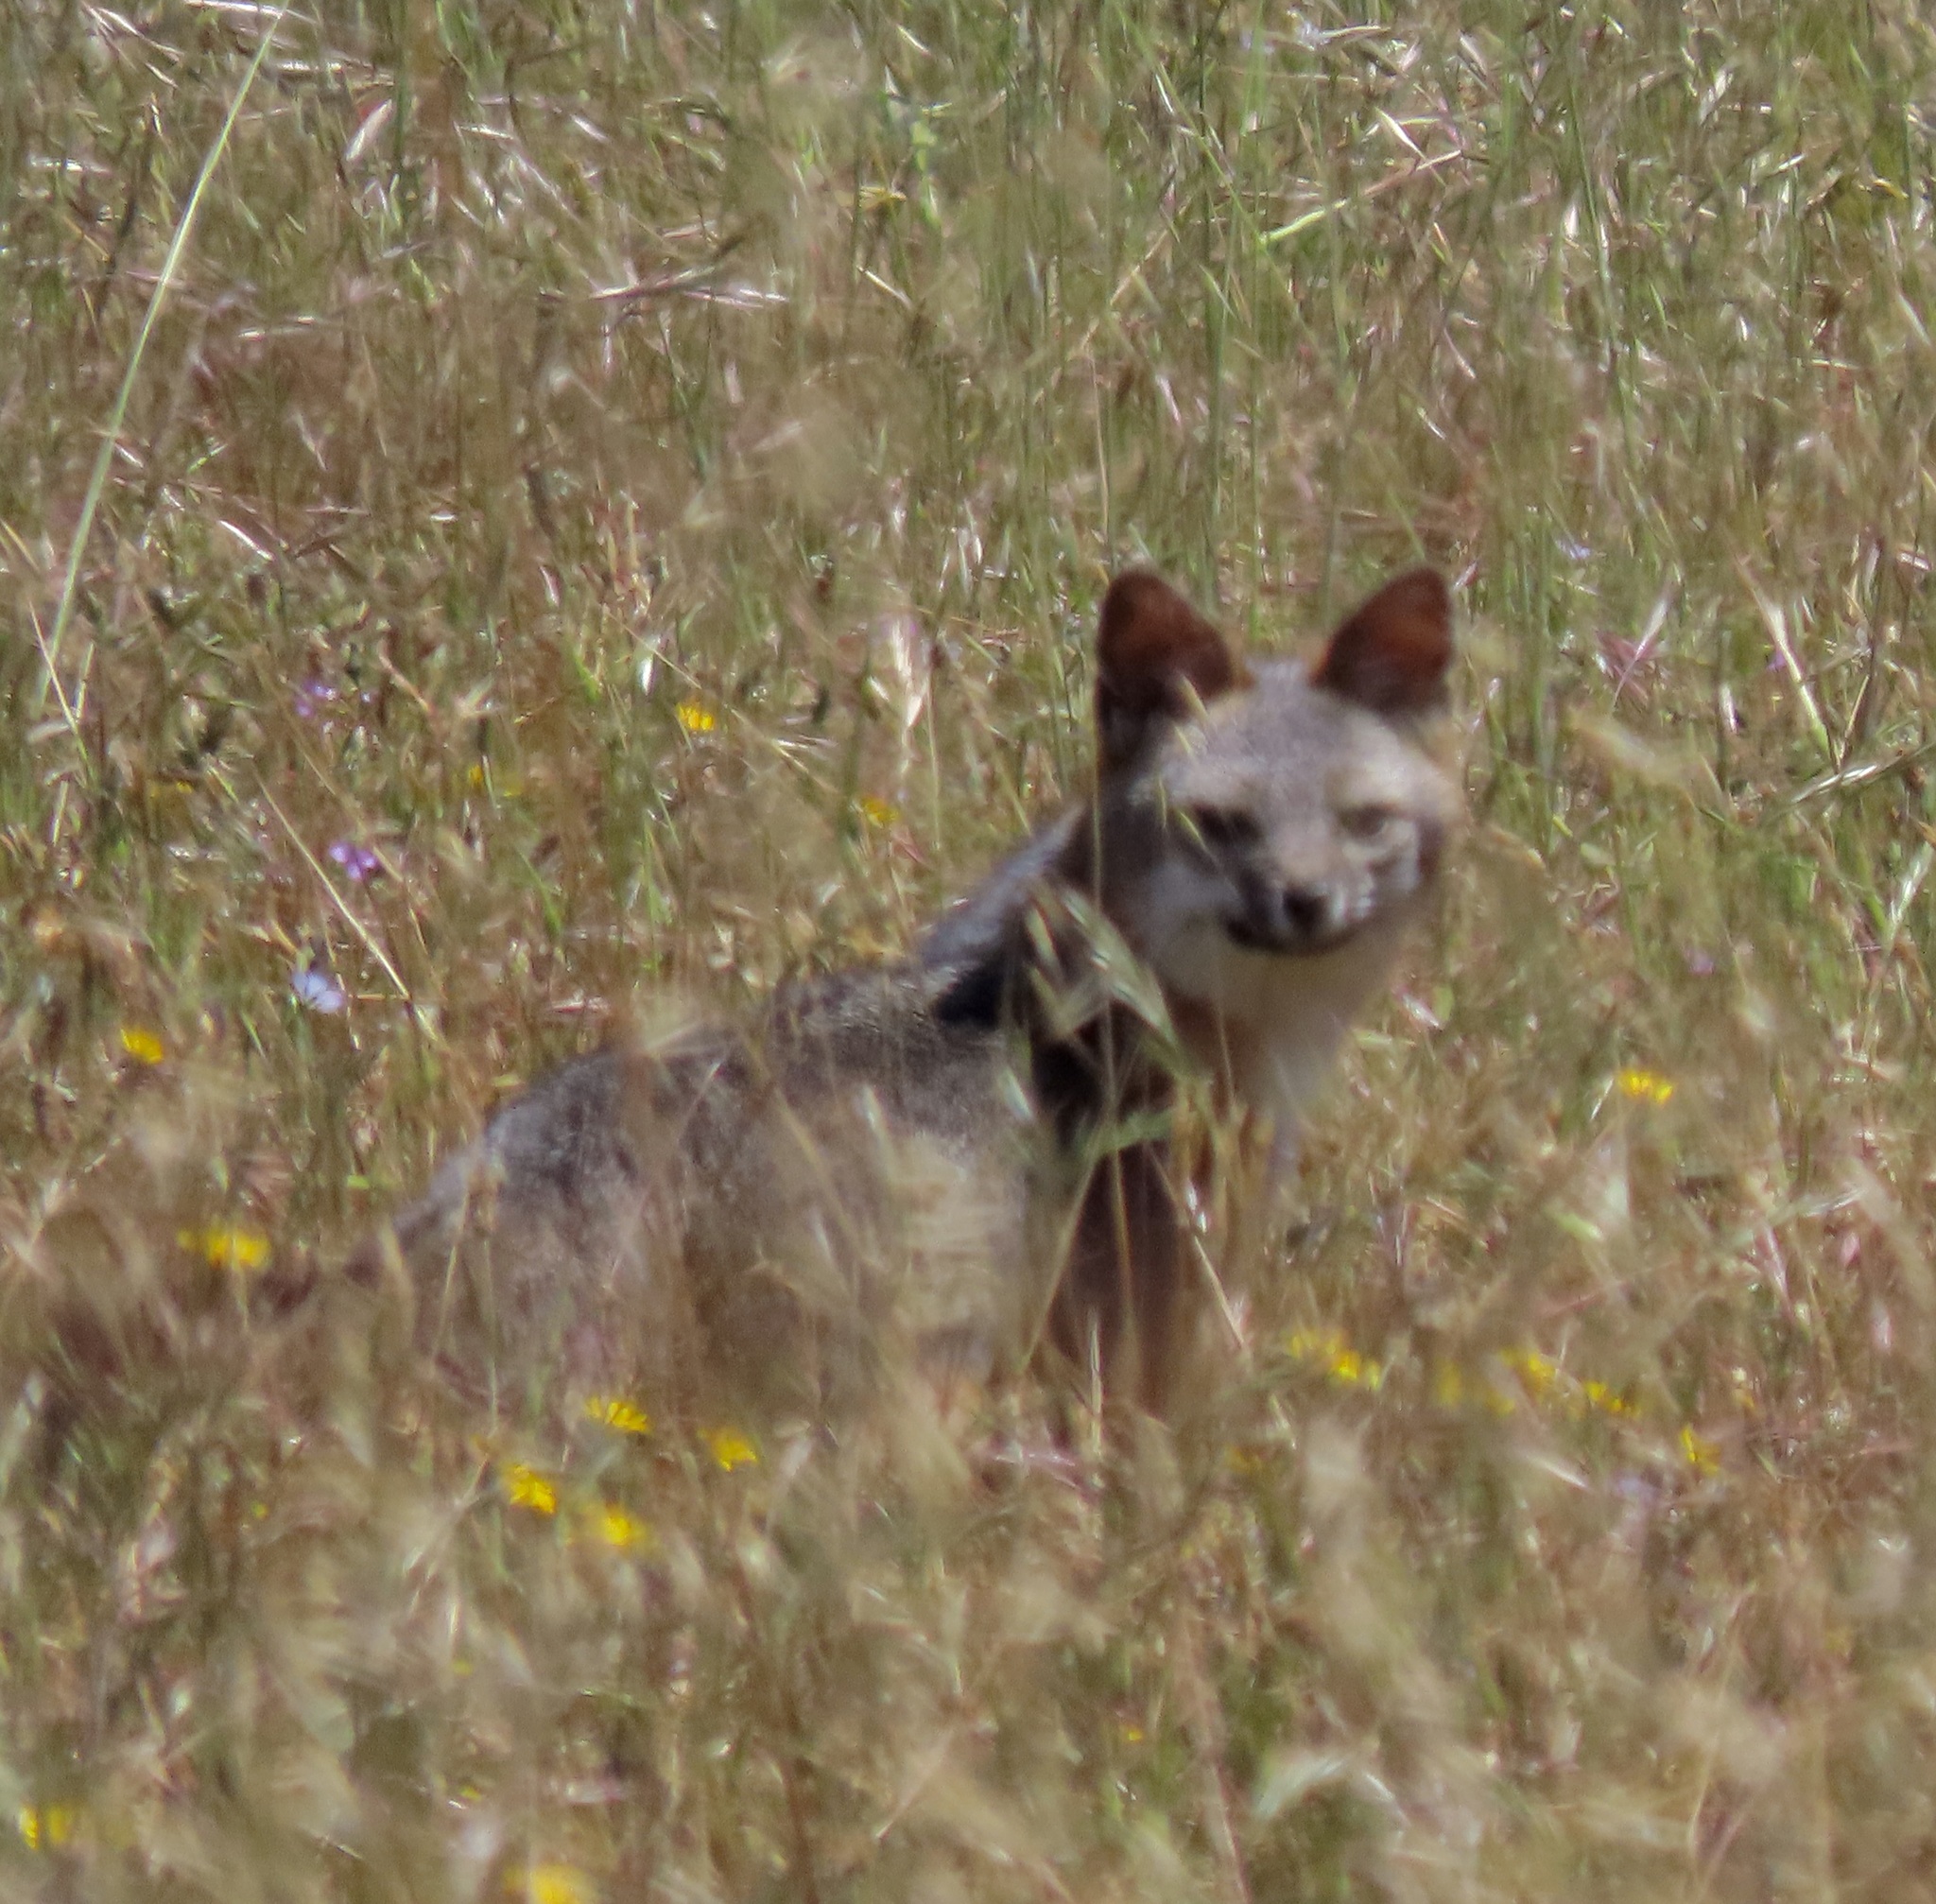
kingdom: Animalia
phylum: Chordata
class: Mammalia
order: Carnivora
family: Canidae
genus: Urocyon
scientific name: Urocyon cinereoargenteus
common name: Gray fox
